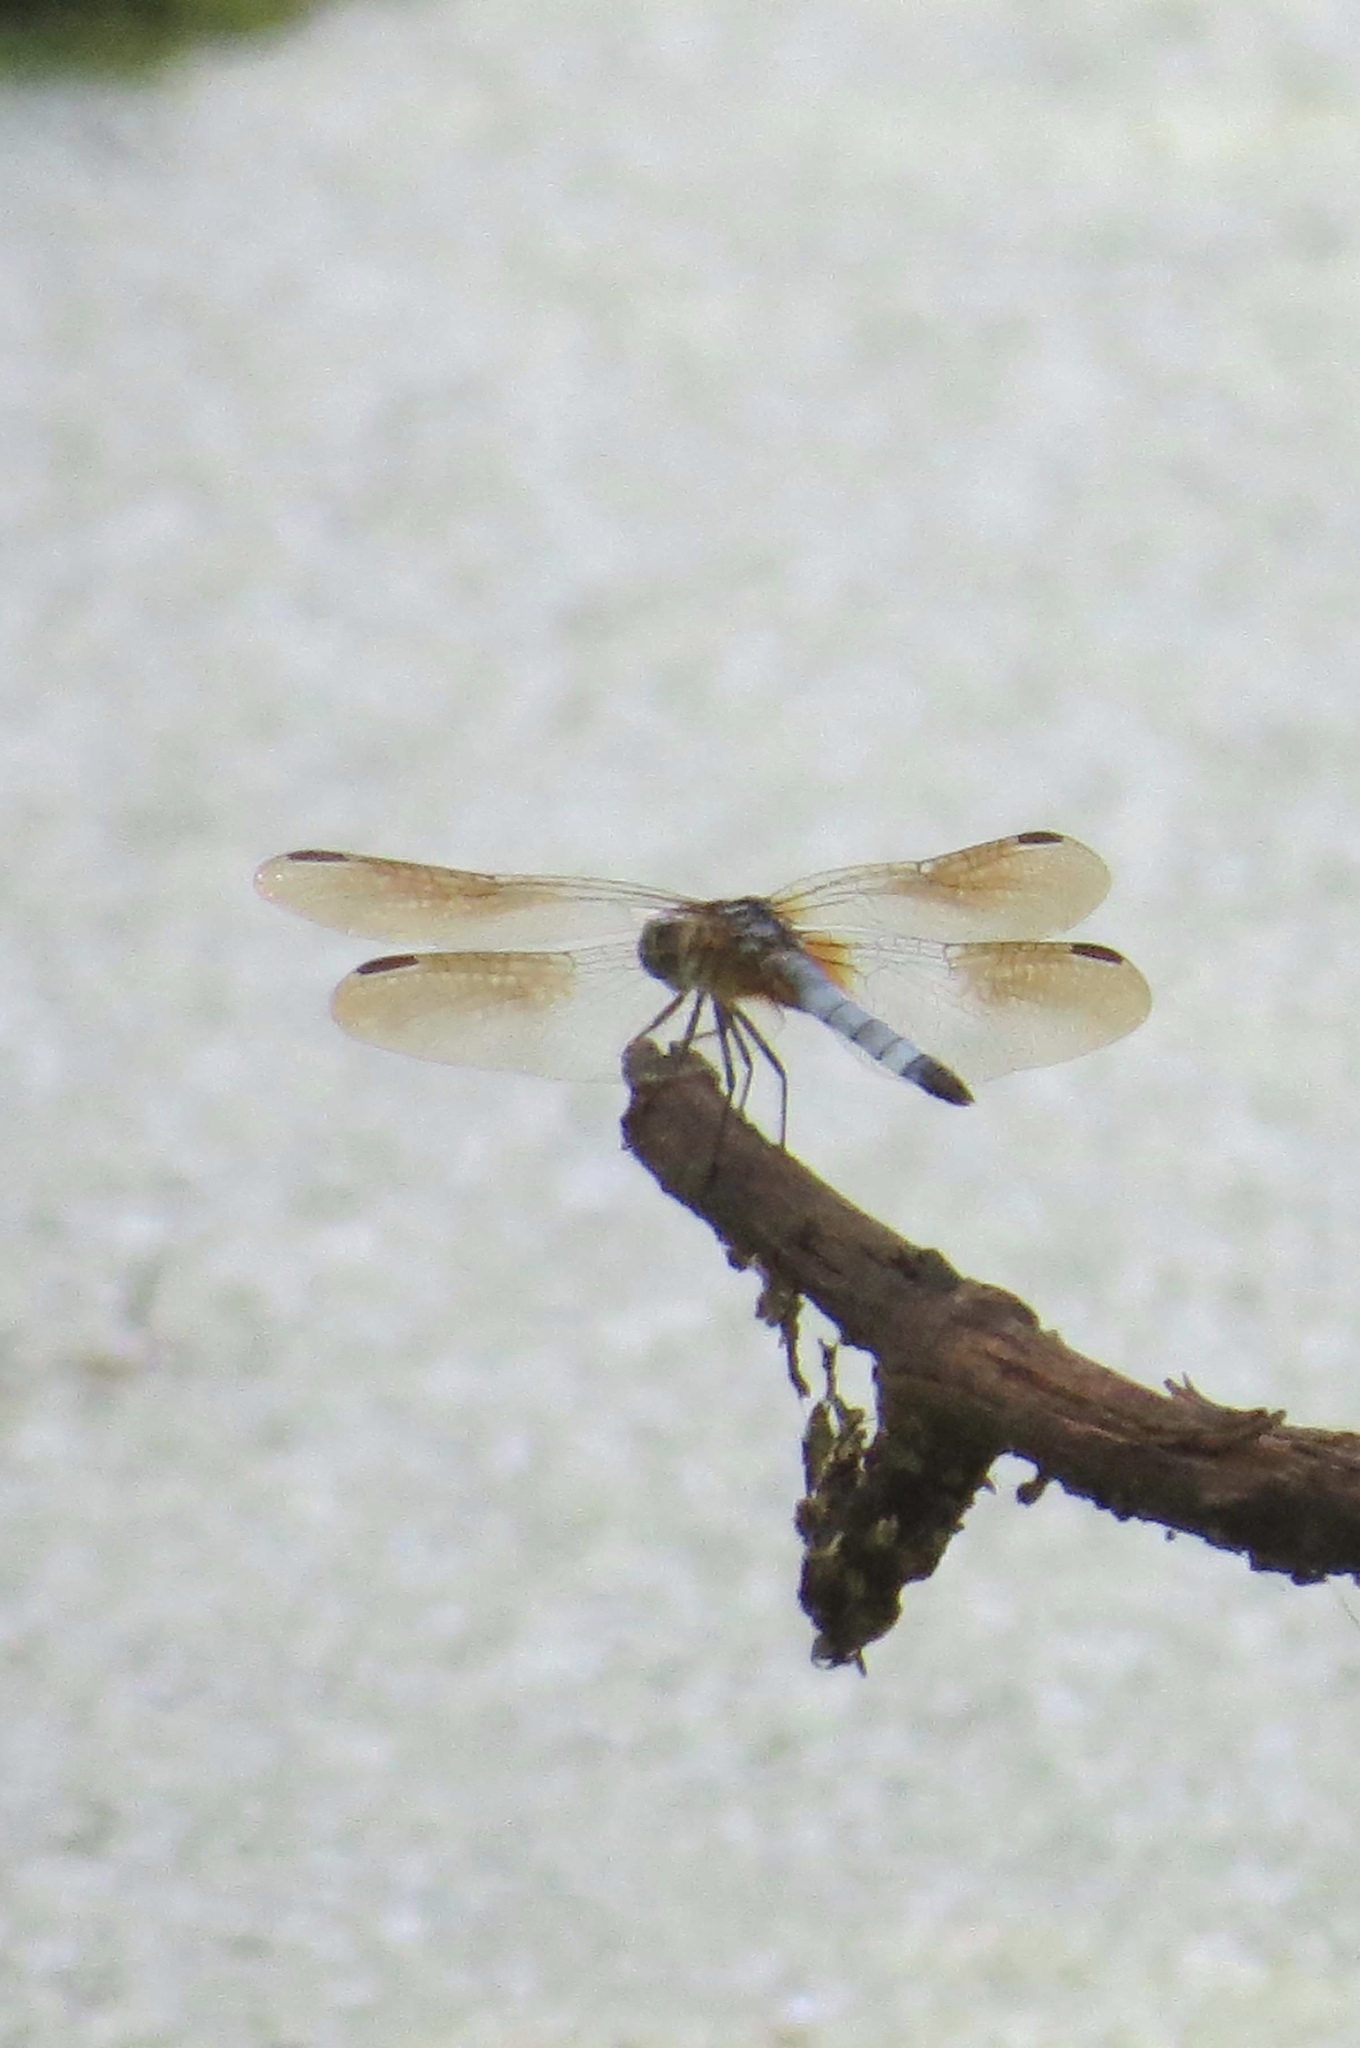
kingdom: Animalia
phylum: Arthropoda
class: Insecta
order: Odonata
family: Libellulidae
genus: Pachydiplax
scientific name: Pachydiplax longipennis
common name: Blue dasher
